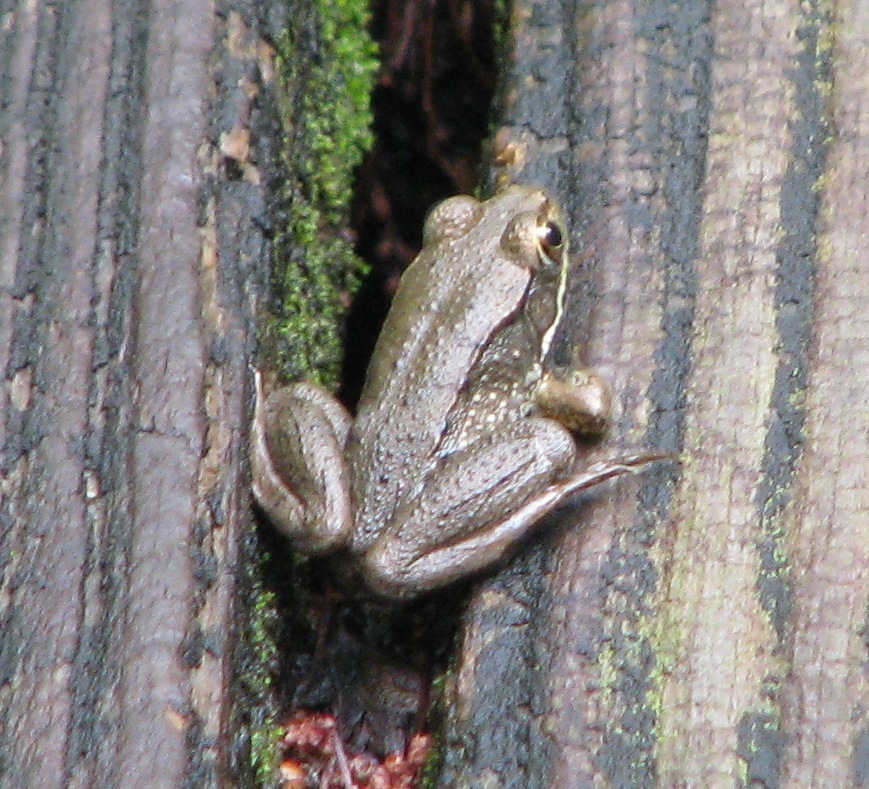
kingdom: Animalia
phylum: Chordata
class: Amphibia
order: Anura
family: Ranidae
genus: Lithobates
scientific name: Lithobates clamitans
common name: Green frog
